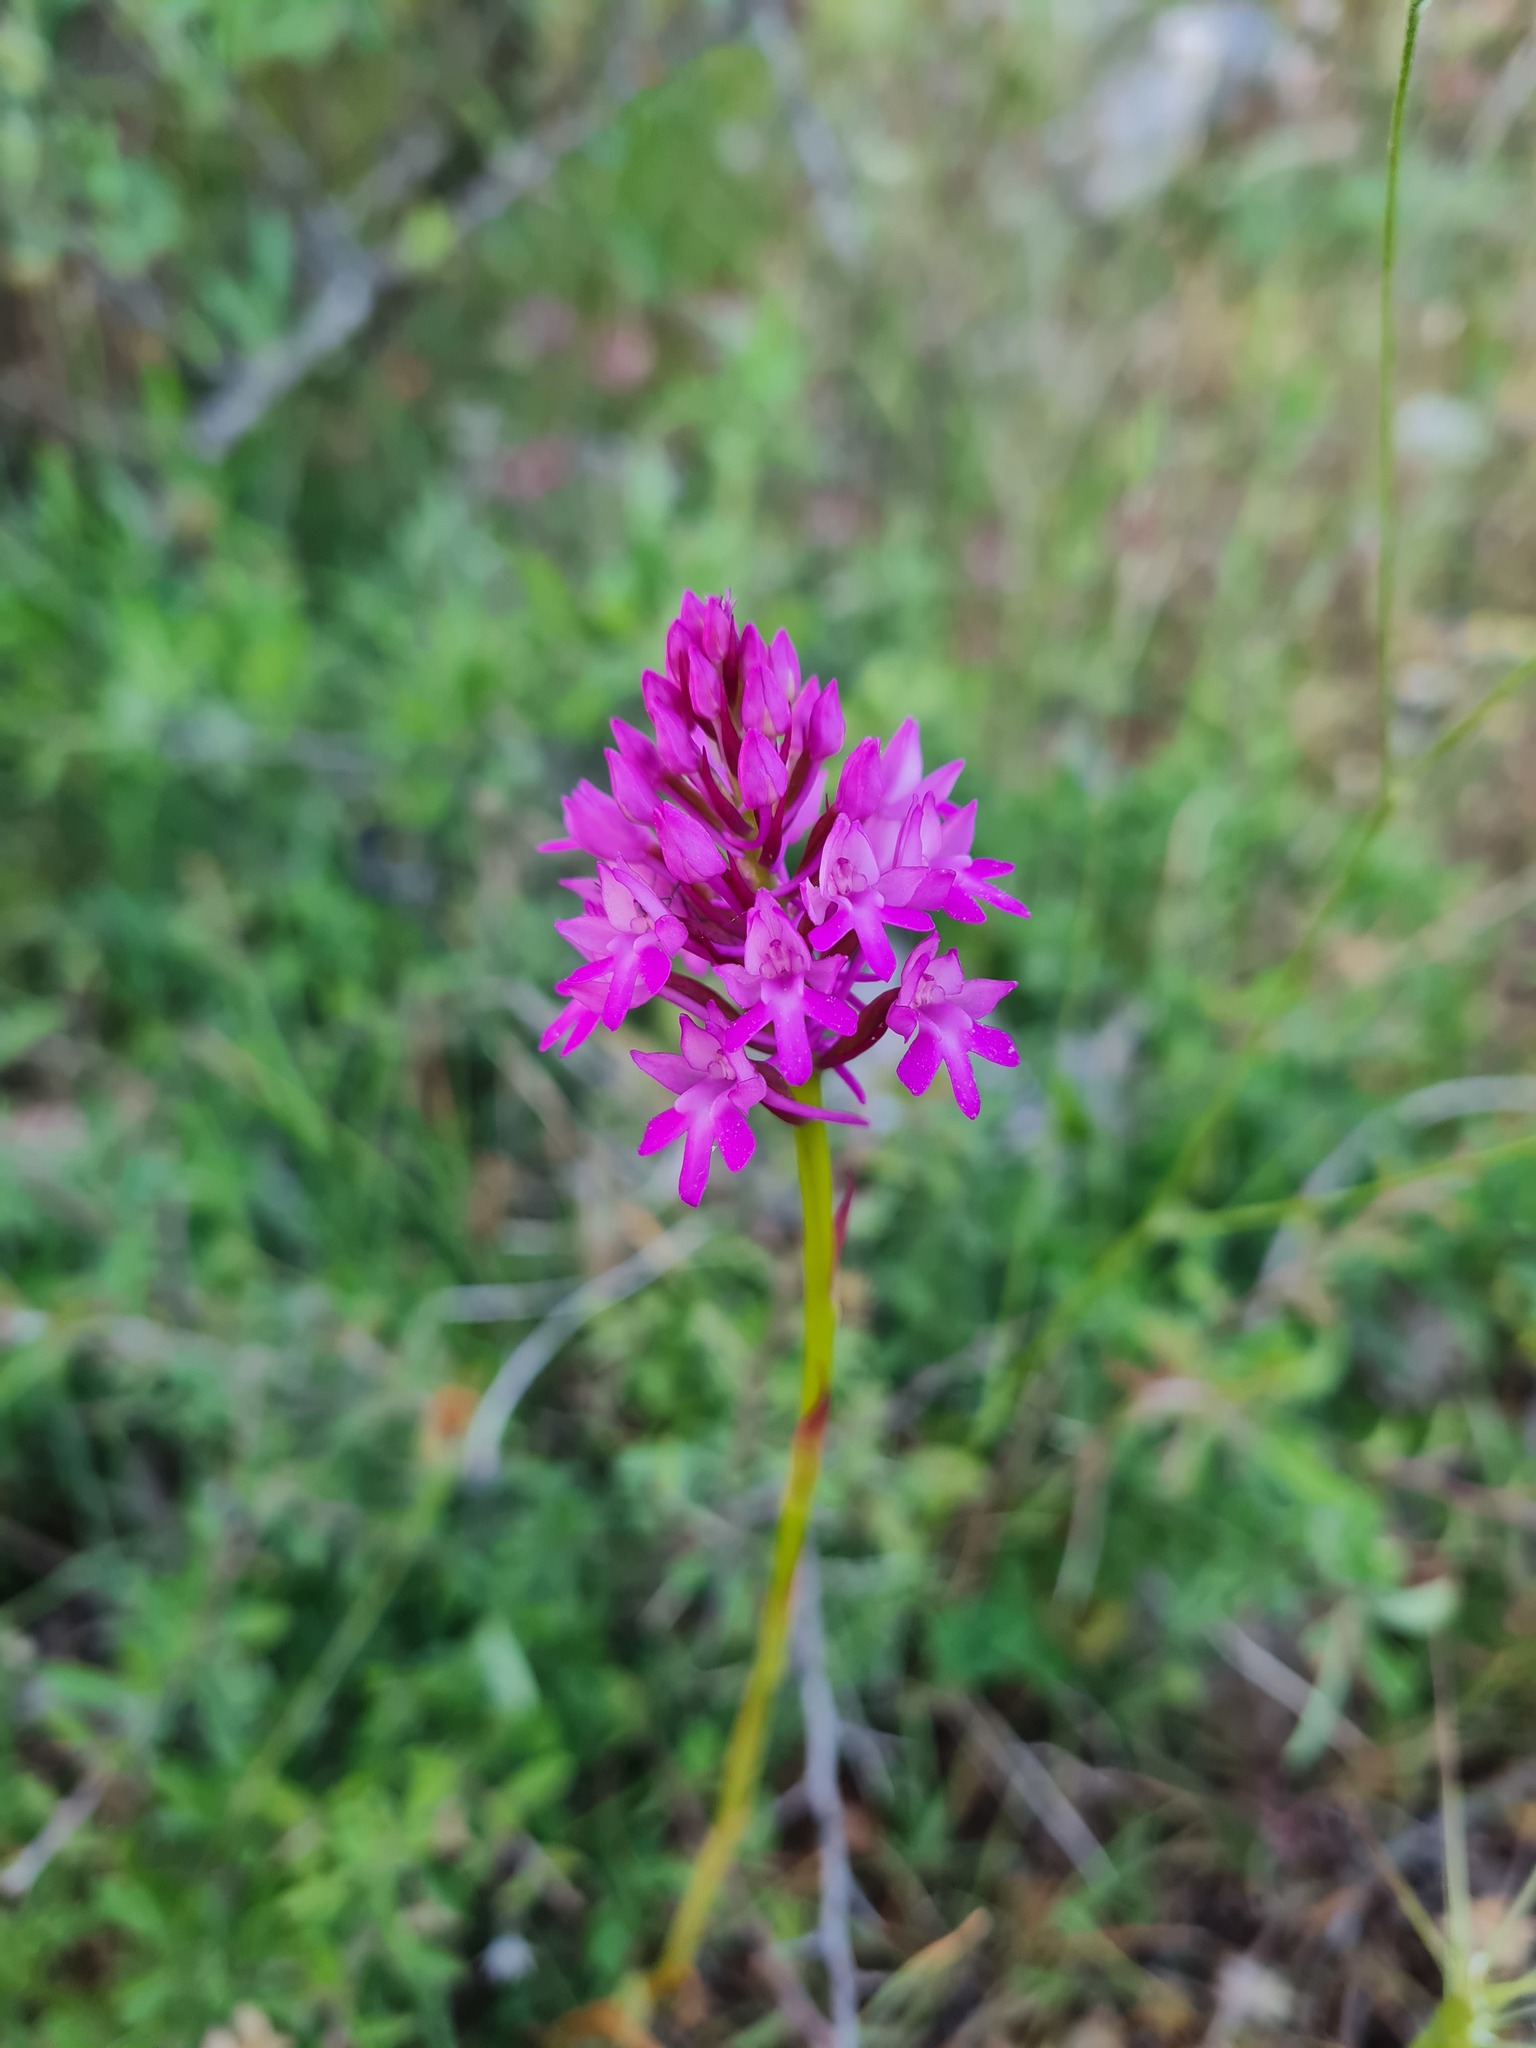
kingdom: Plantae
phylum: Tracheophyta
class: Liliopsida
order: Asparagales
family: Orchidaceae
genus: Anacamptis
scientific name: Anacamptis pyramidalis
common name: Pyramidal orchid
